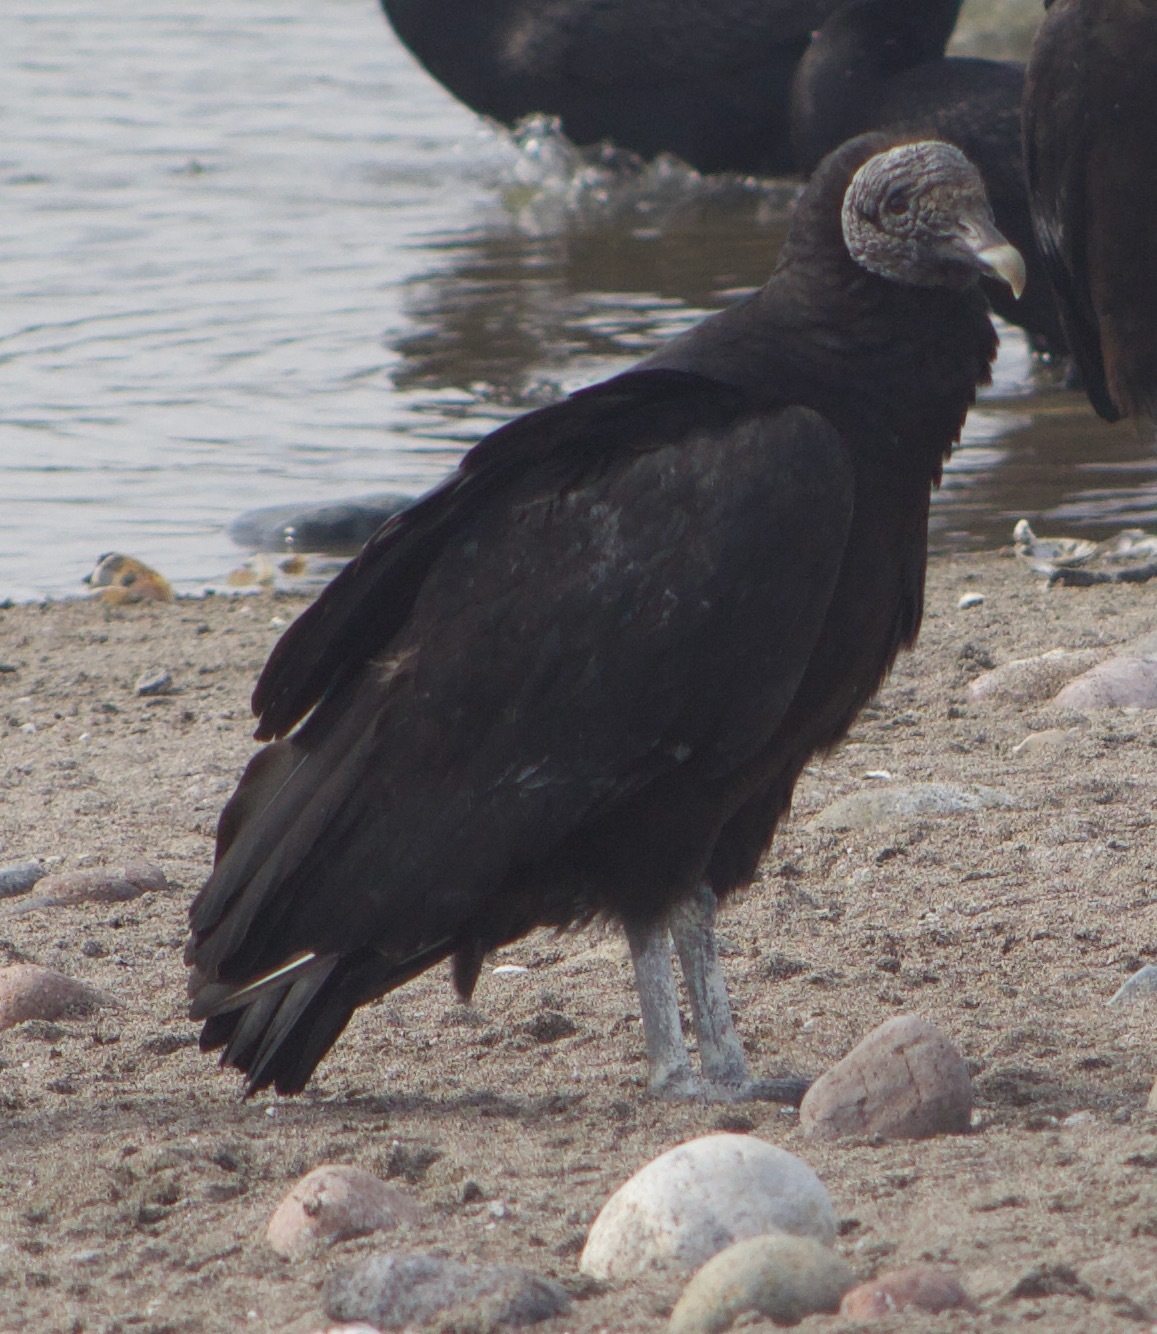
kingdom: Animalia
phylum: Chordata
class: Aves
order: Accipitriformes
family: Cathartidae
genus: Coragyps
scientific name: Coragyps atratus
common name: Black vulture
